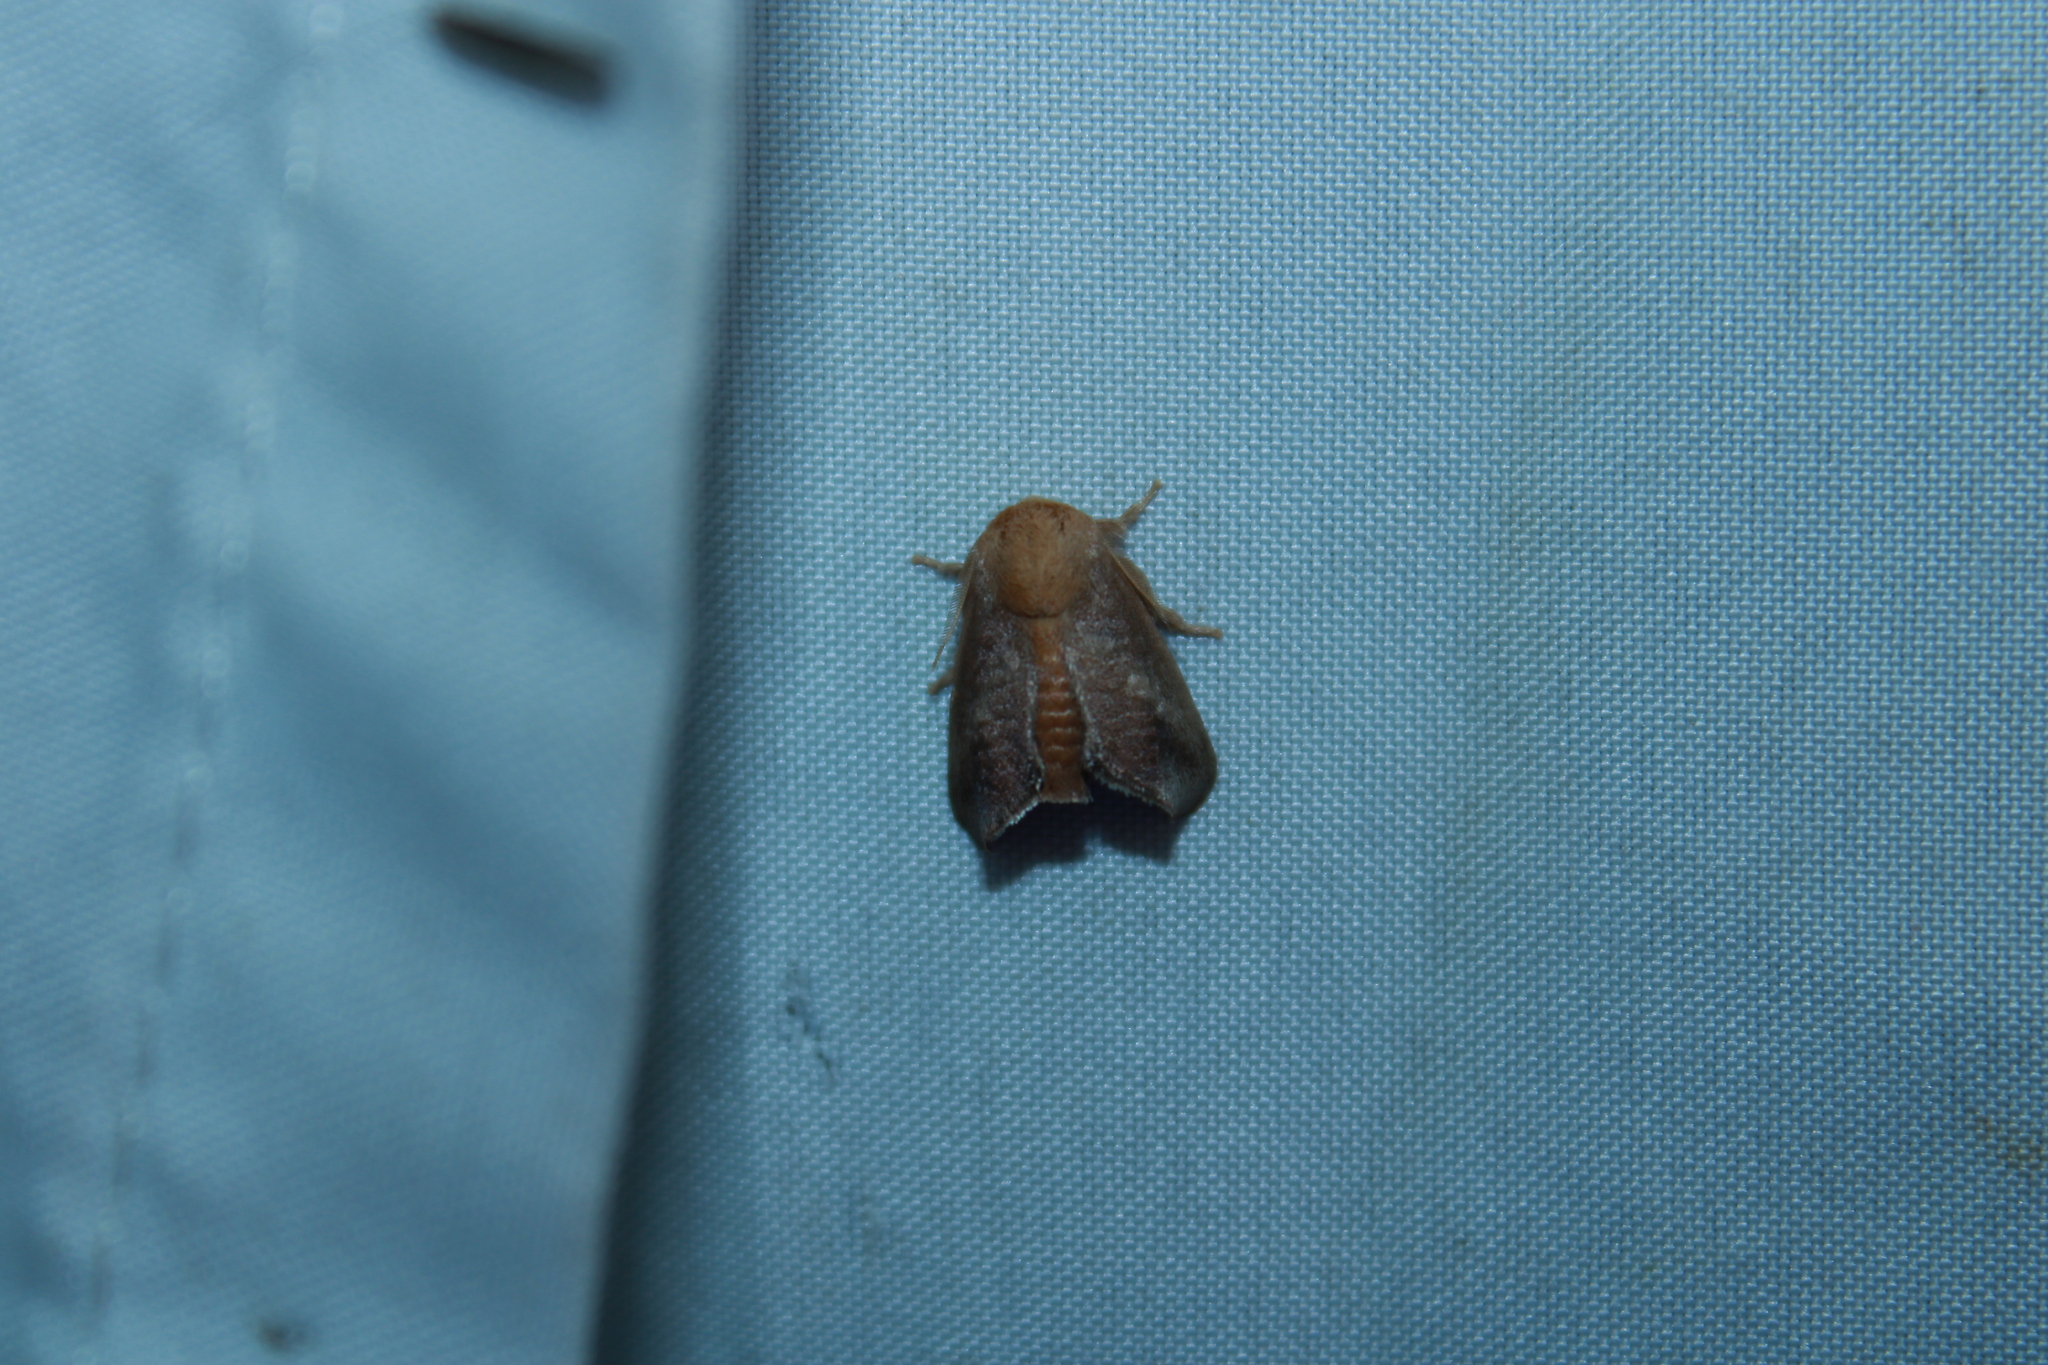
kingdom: Animalia
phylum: Arthropoda
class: Insecta
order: Lepidoptera
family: Limacodidae
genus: Isa
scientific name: Isa textula
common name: Crowned slug moth
